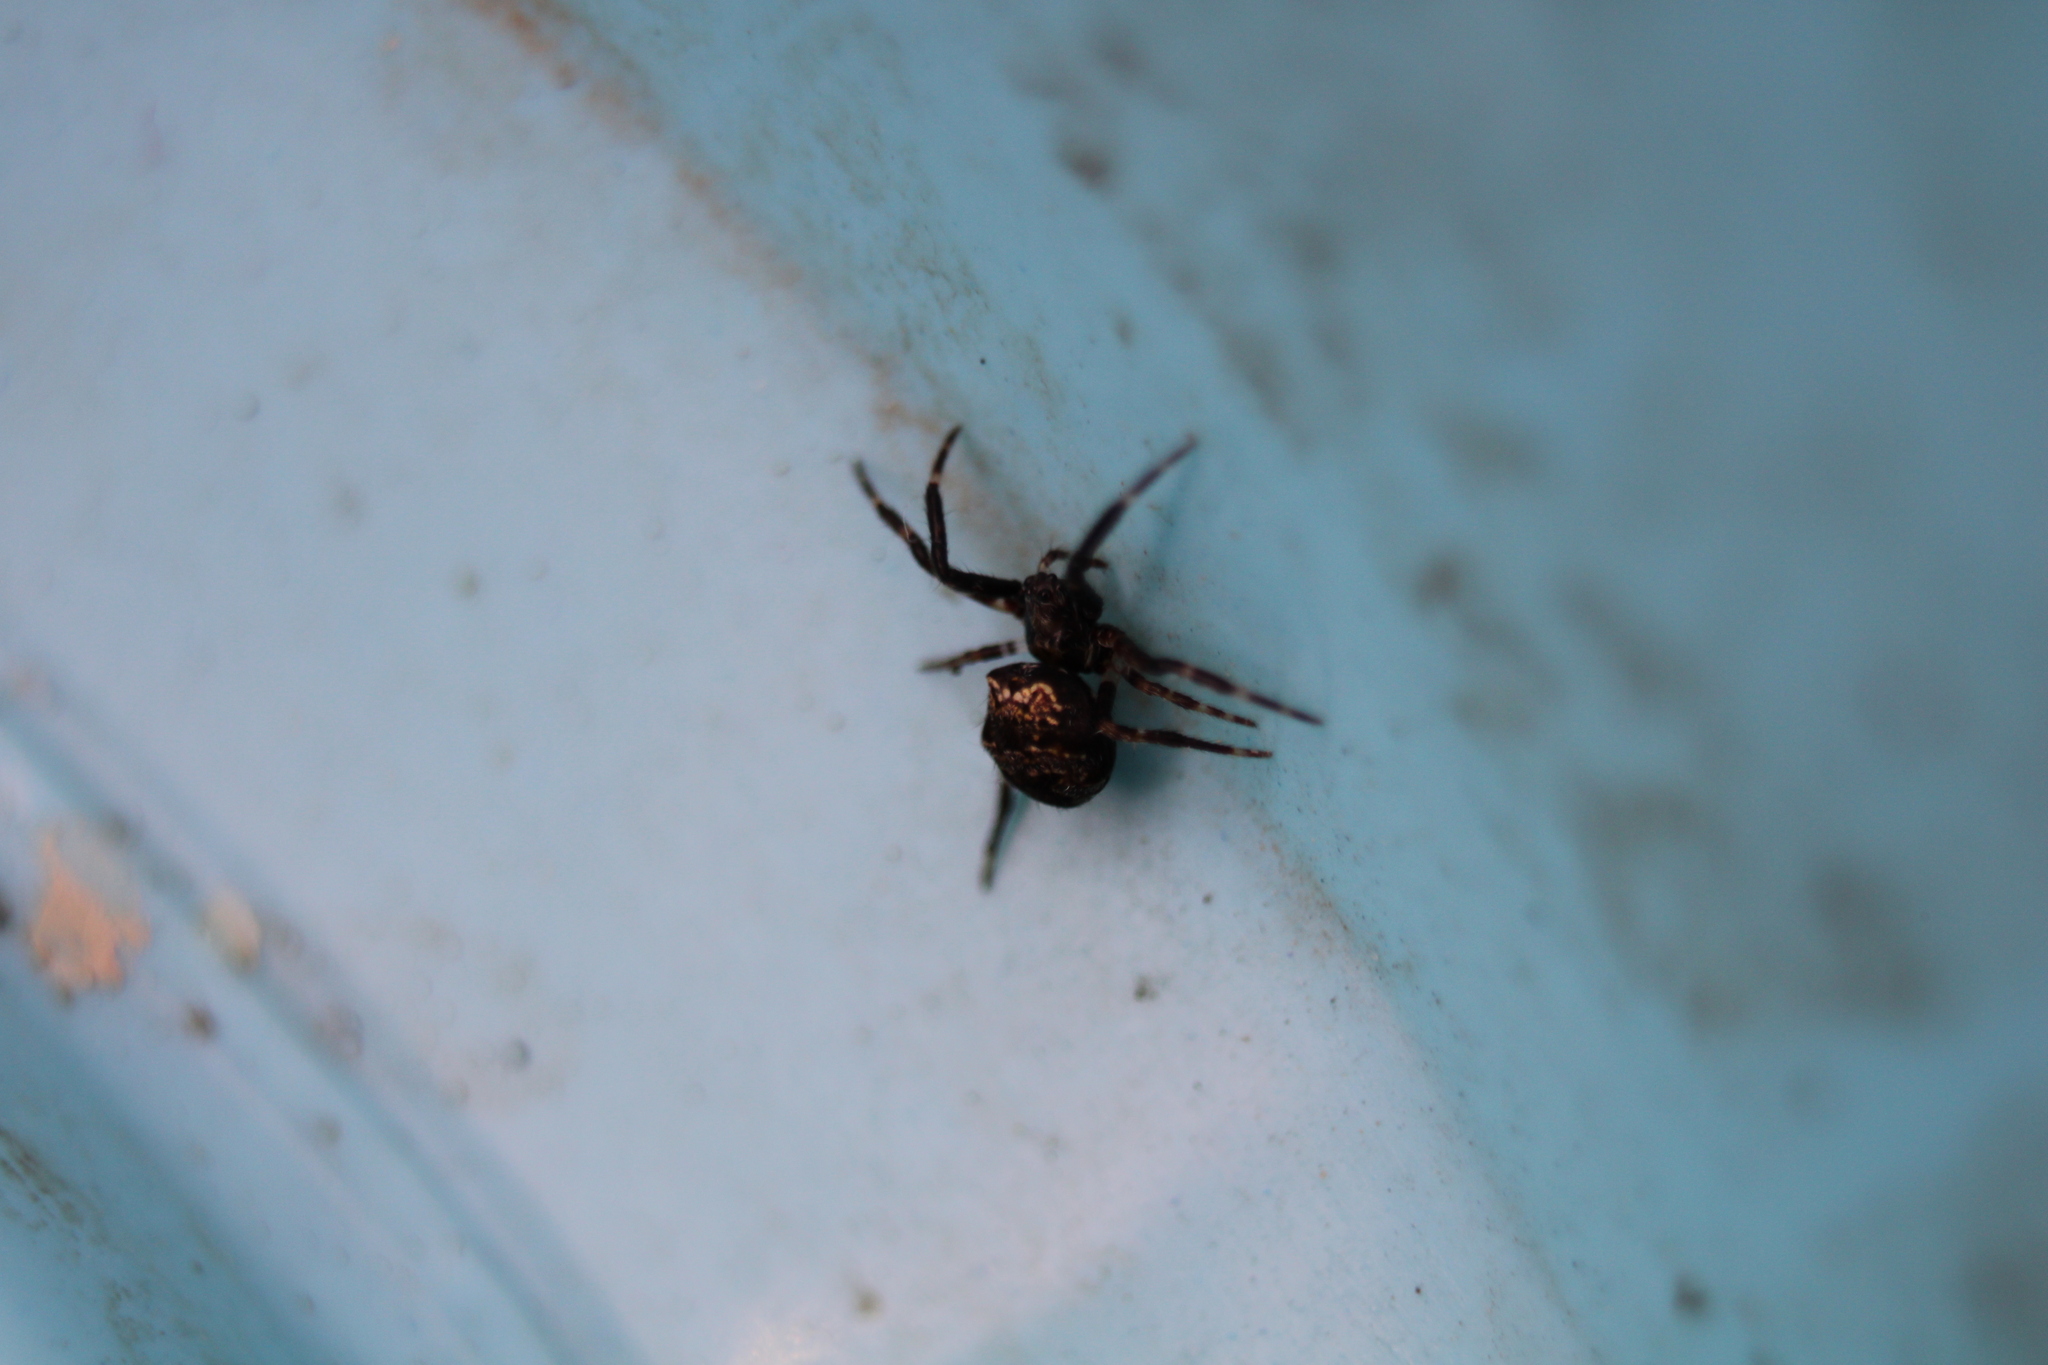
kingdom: Animalia
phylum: Arthropoda
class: Arachnida
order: Araneae
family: Araneidae
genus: Gea
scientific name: Gea heptagon
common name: Orb weavers
